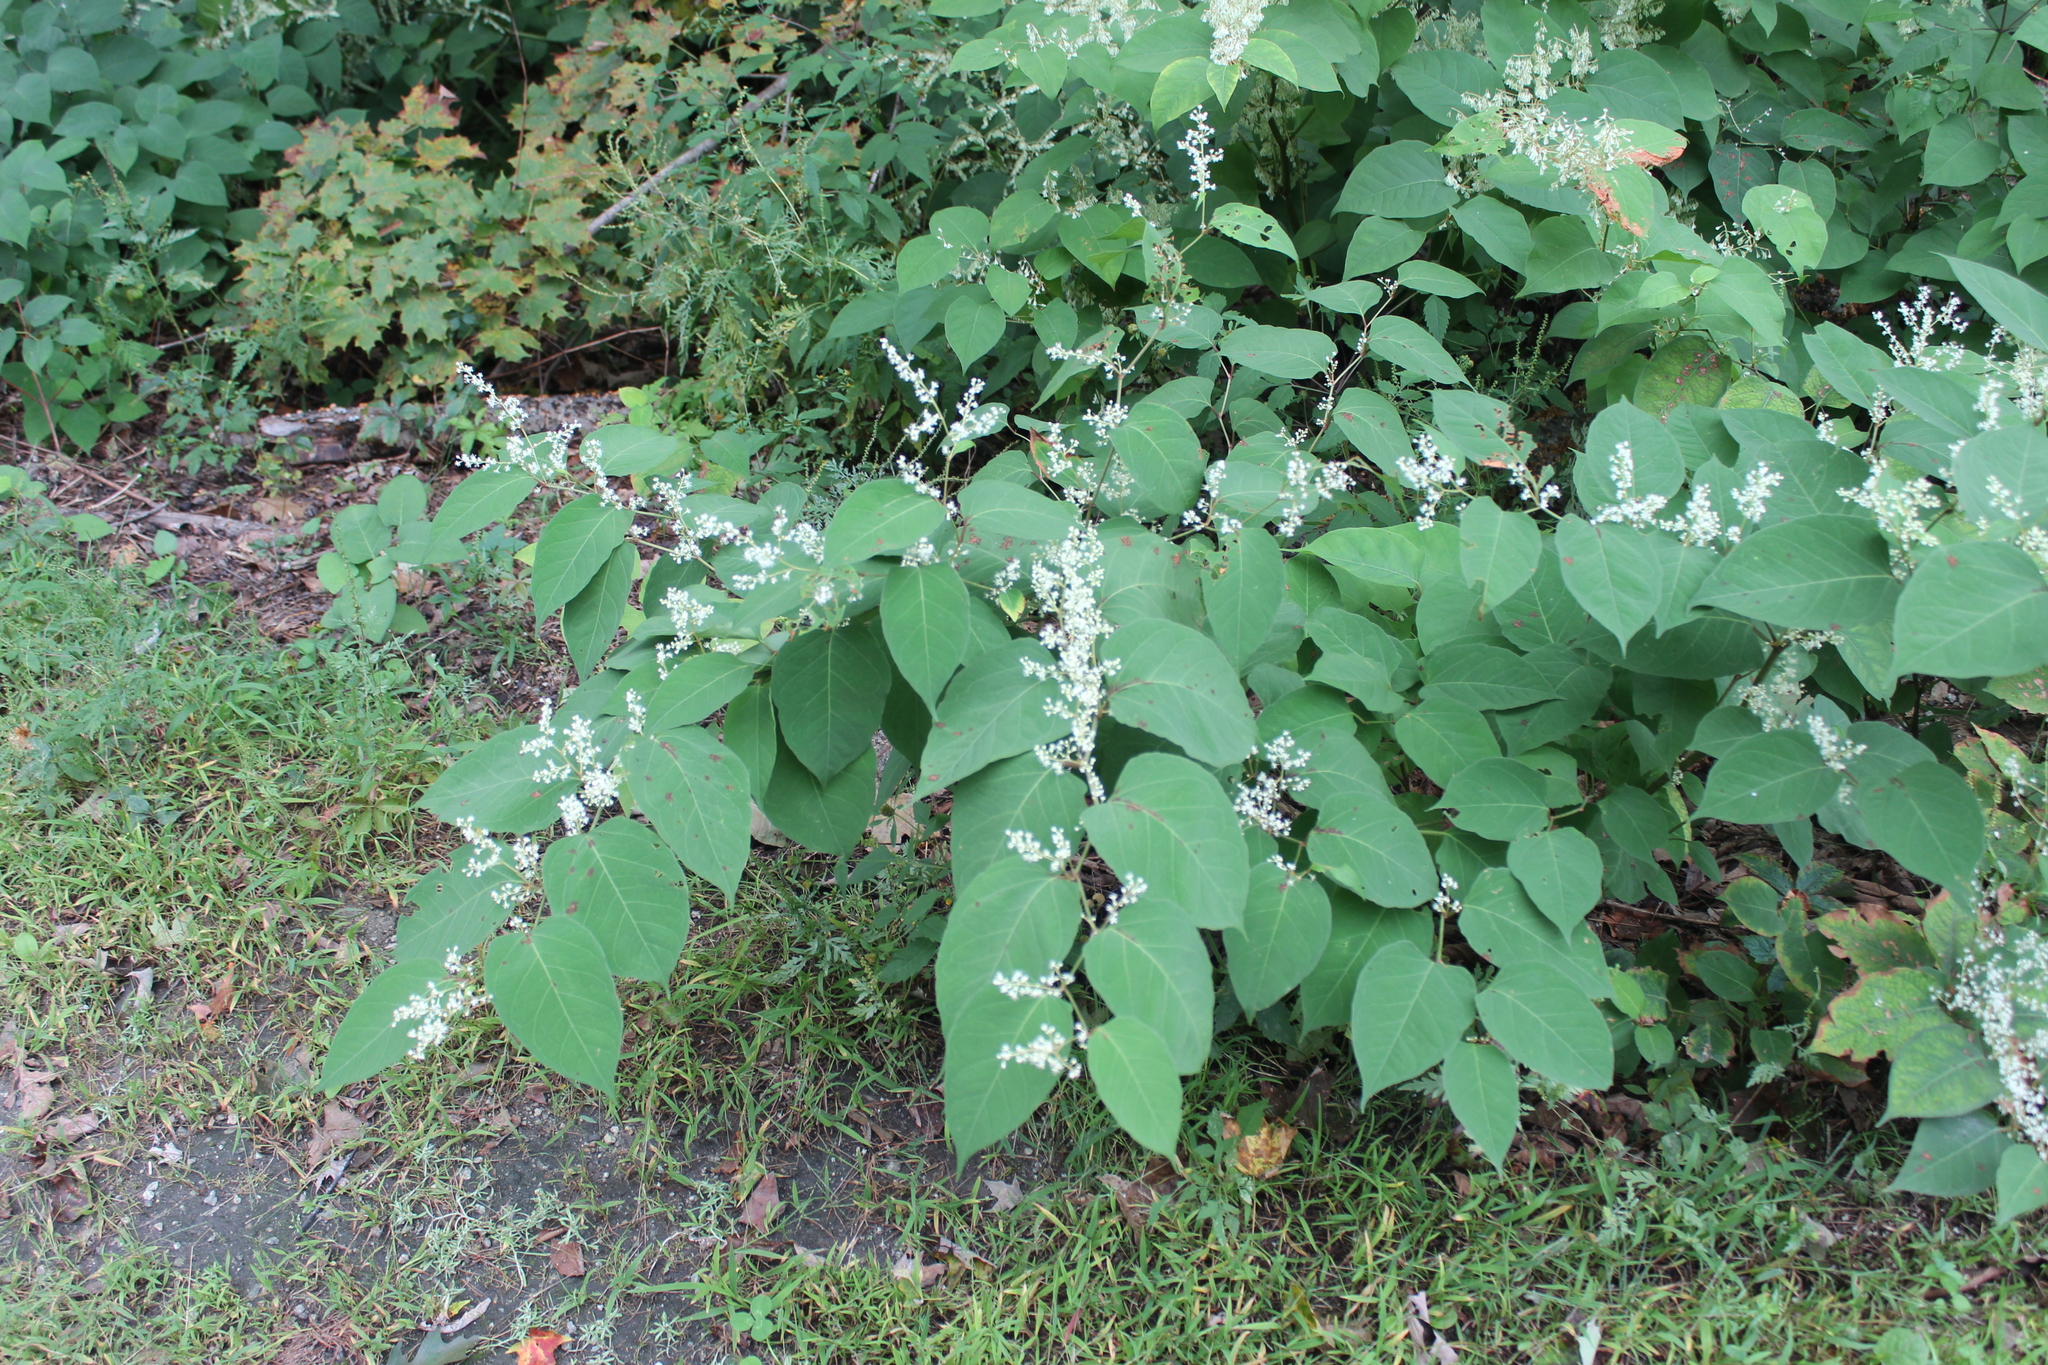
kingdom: Plantae
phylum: Tracheophyta
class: Magnoliopsida
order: Caryophyllales
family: Polygonaceae
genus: Reynoutria
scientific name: Reynoutria japonica
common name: Japanese knotweed
